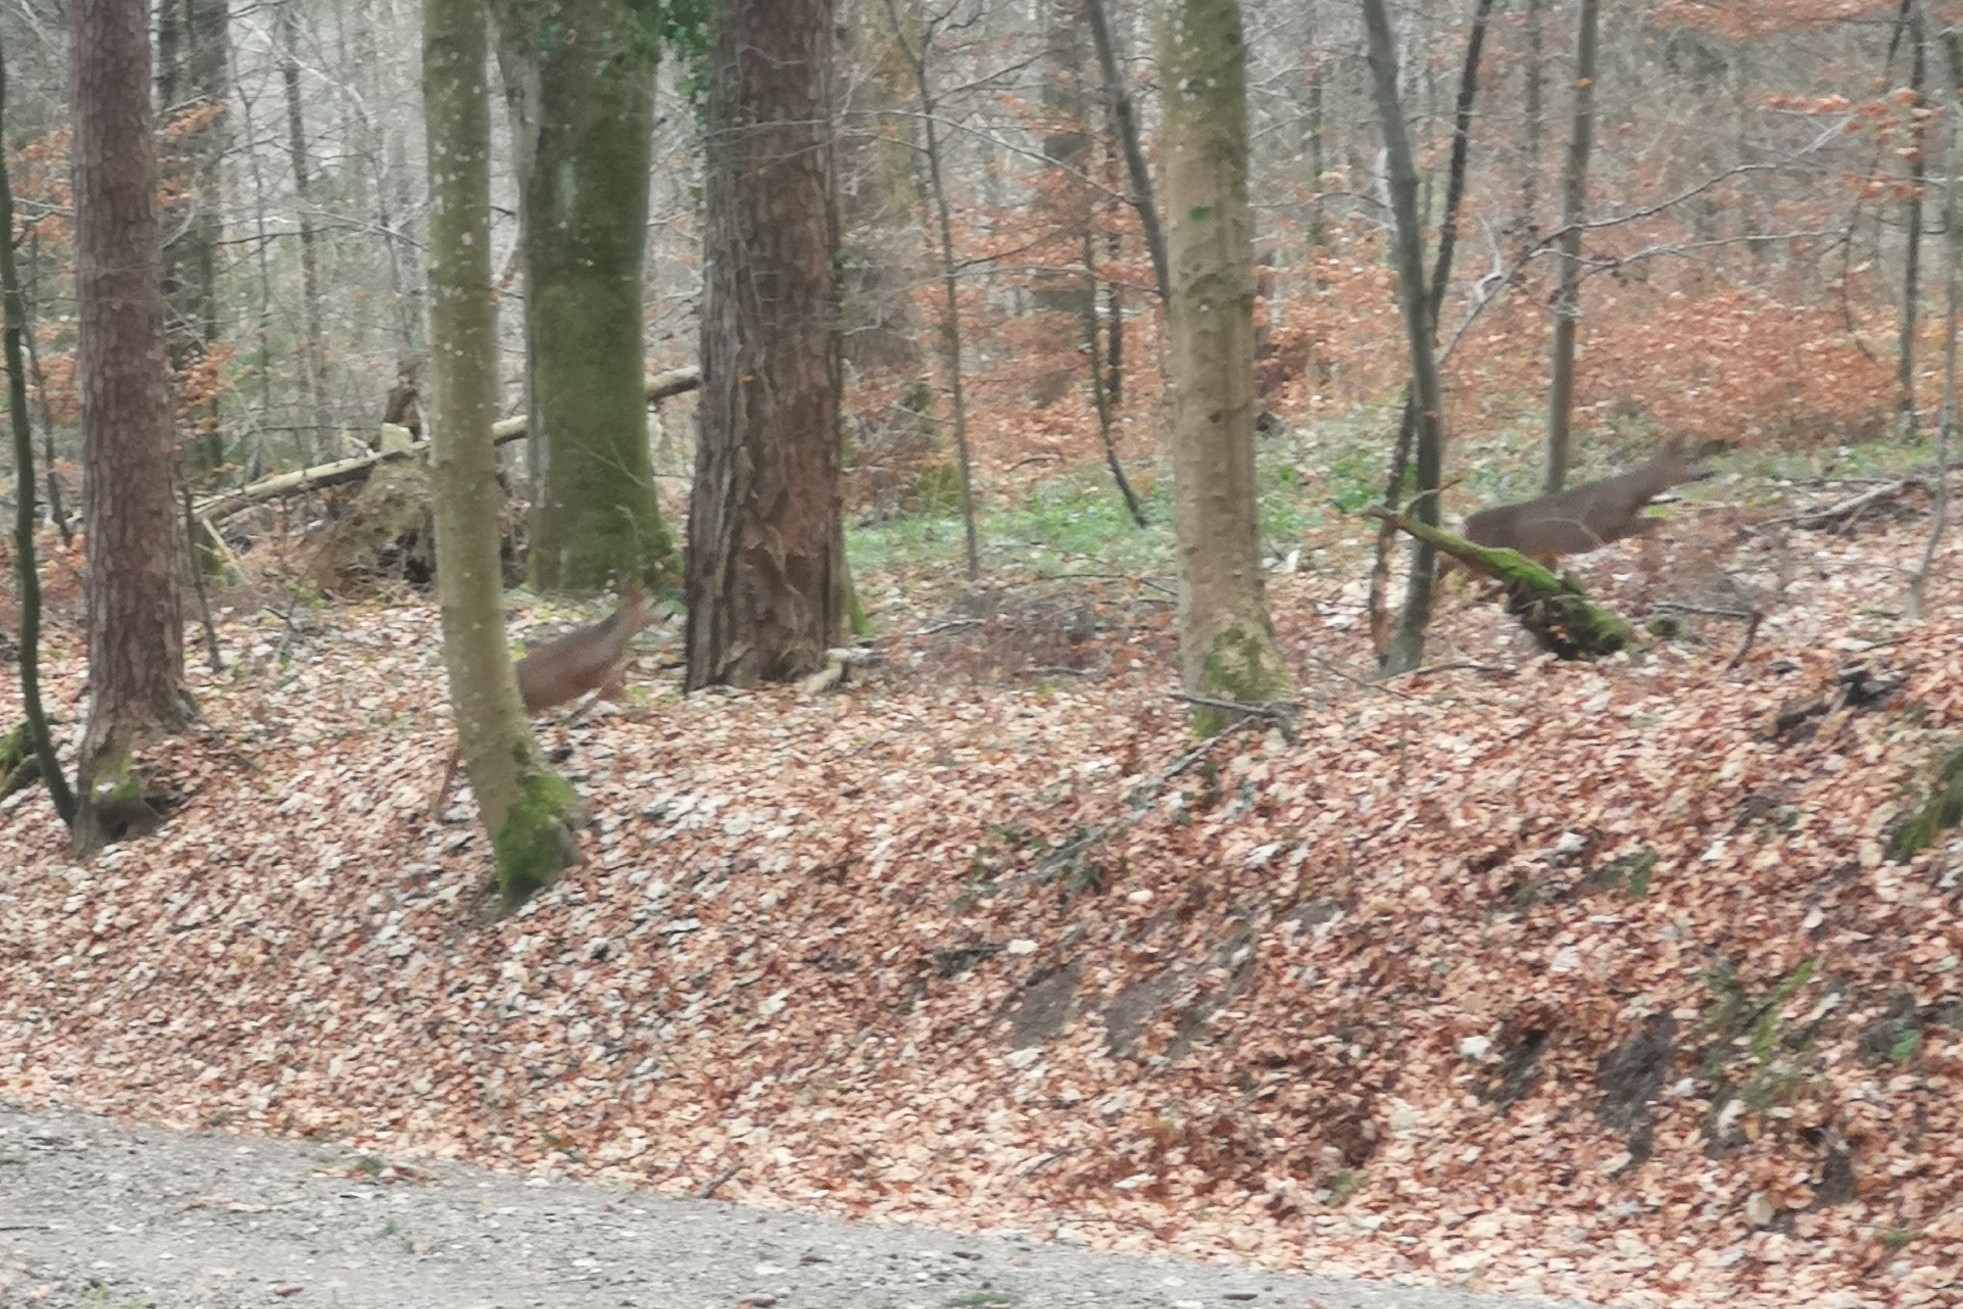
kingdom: Animalia
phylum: Chordata
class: Mammalia
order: Artiodactyla
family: Cervidae
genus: Capreolus
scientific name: Capreolus capreolus
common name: Western roe deer
